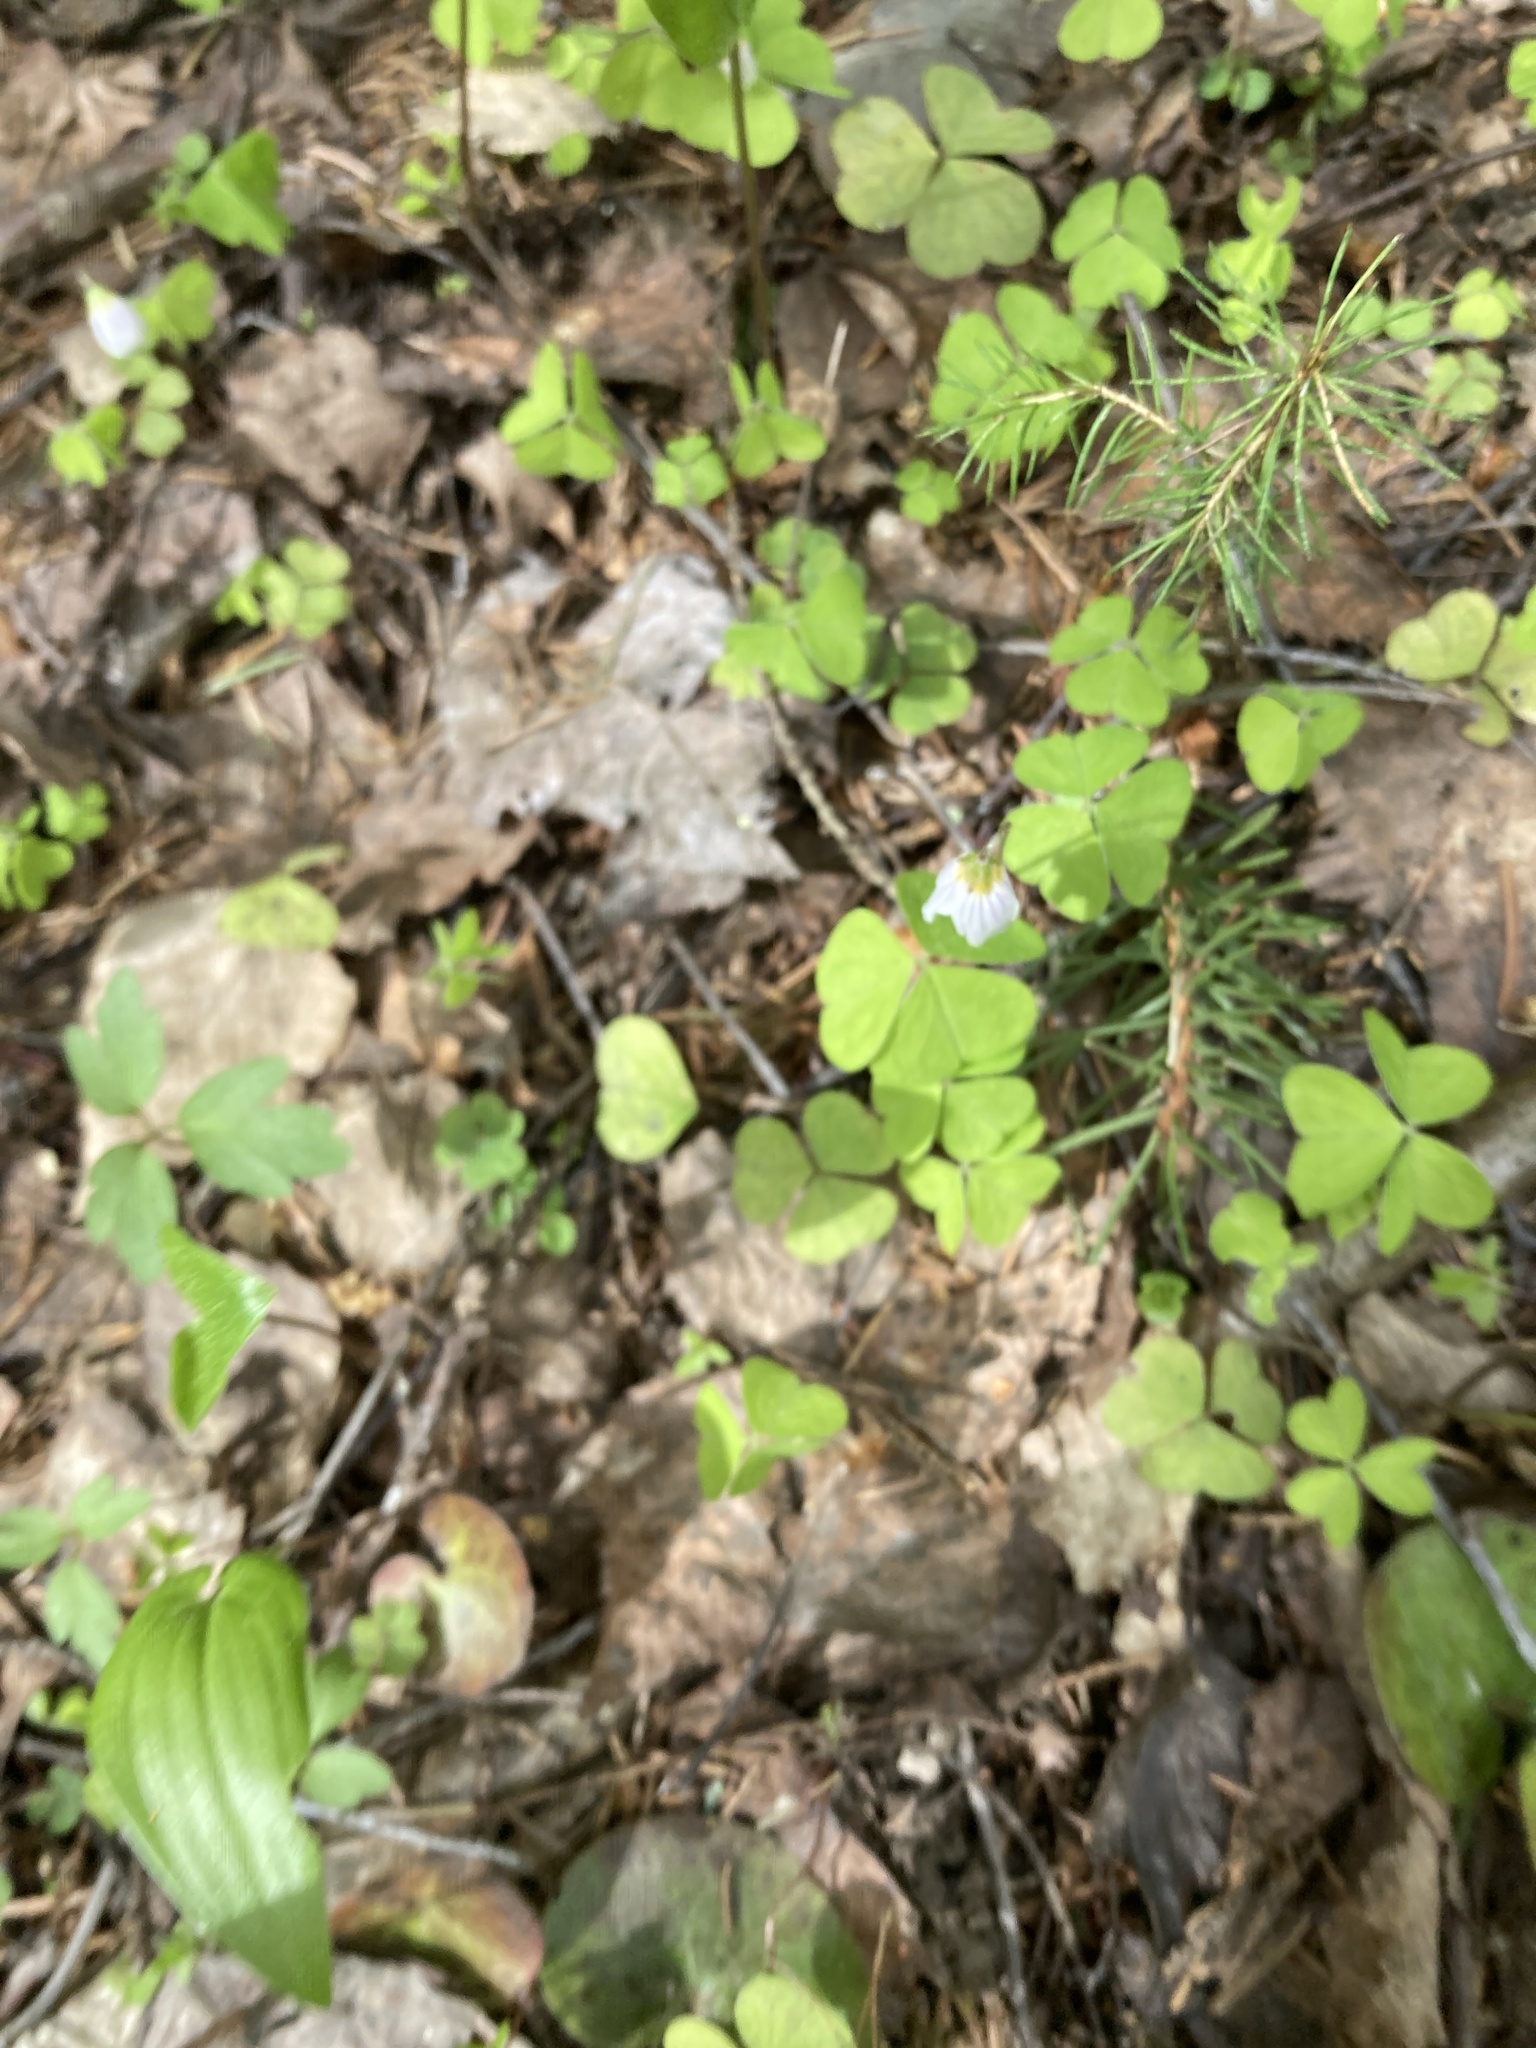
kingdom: Plantae
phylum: Tracheophyta
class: Magnoliopsida
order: Oxalidales
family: Oxalidaceae
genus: Oxalis
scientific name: Oxalis acetosella
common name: Wood-sorrel
